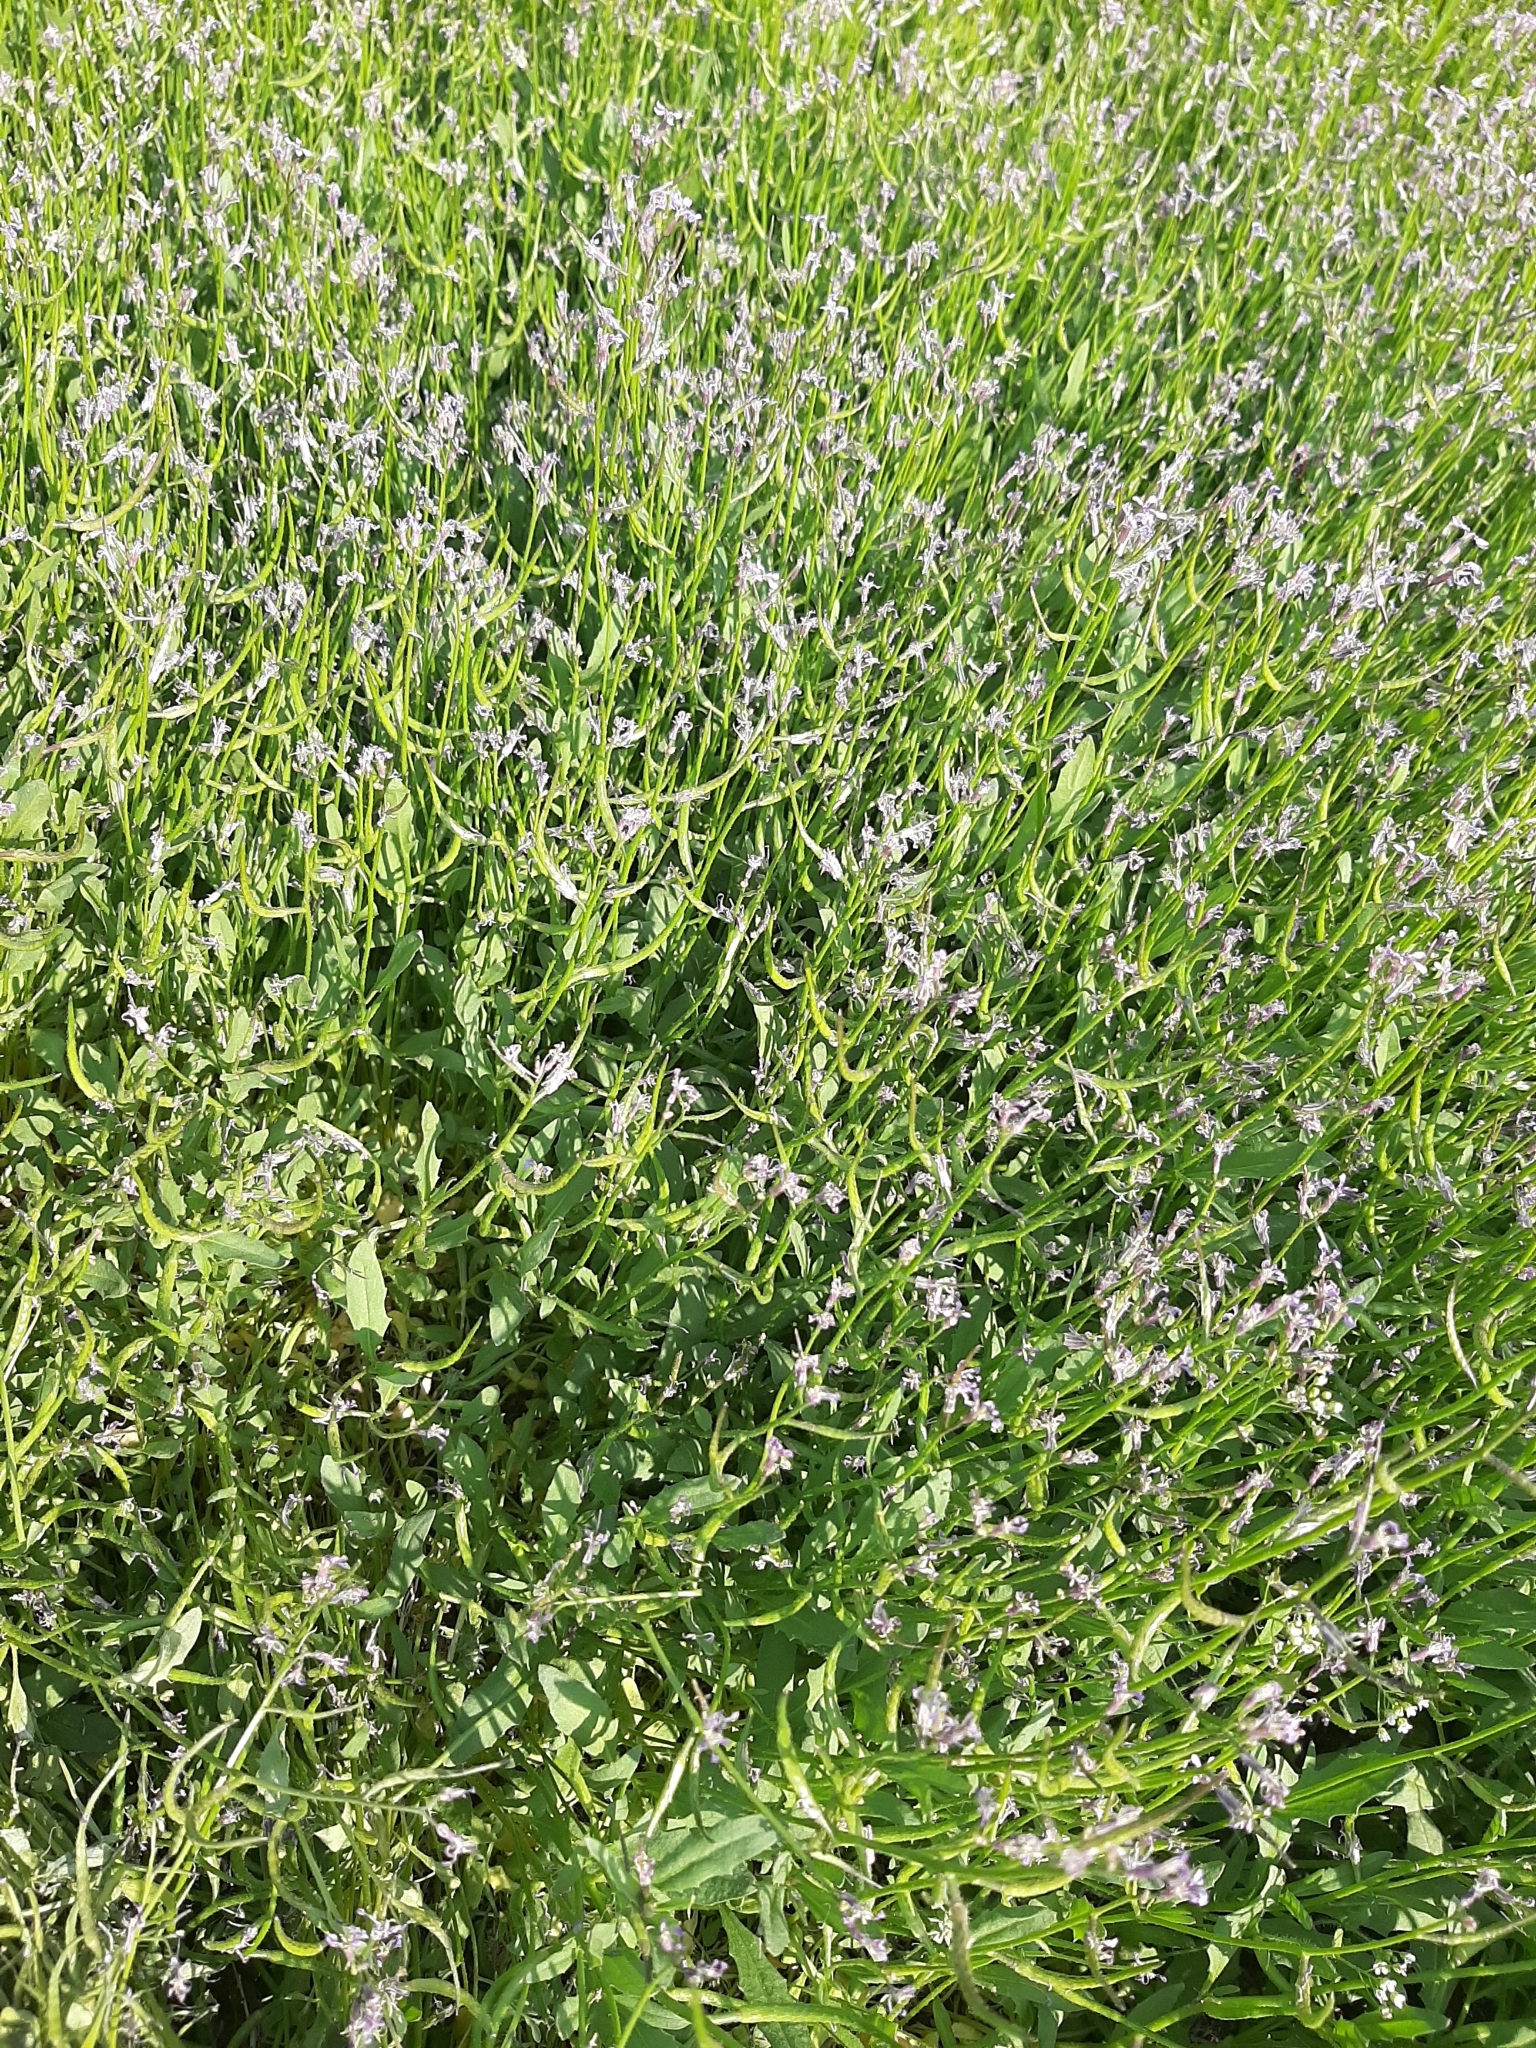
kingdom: Plantae
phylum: Tracheophyta
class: Magnoliopsida
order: Brassicales
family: Brassicaceae
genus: Chorispora
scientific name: Chorispora tenella
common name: Crossflower
